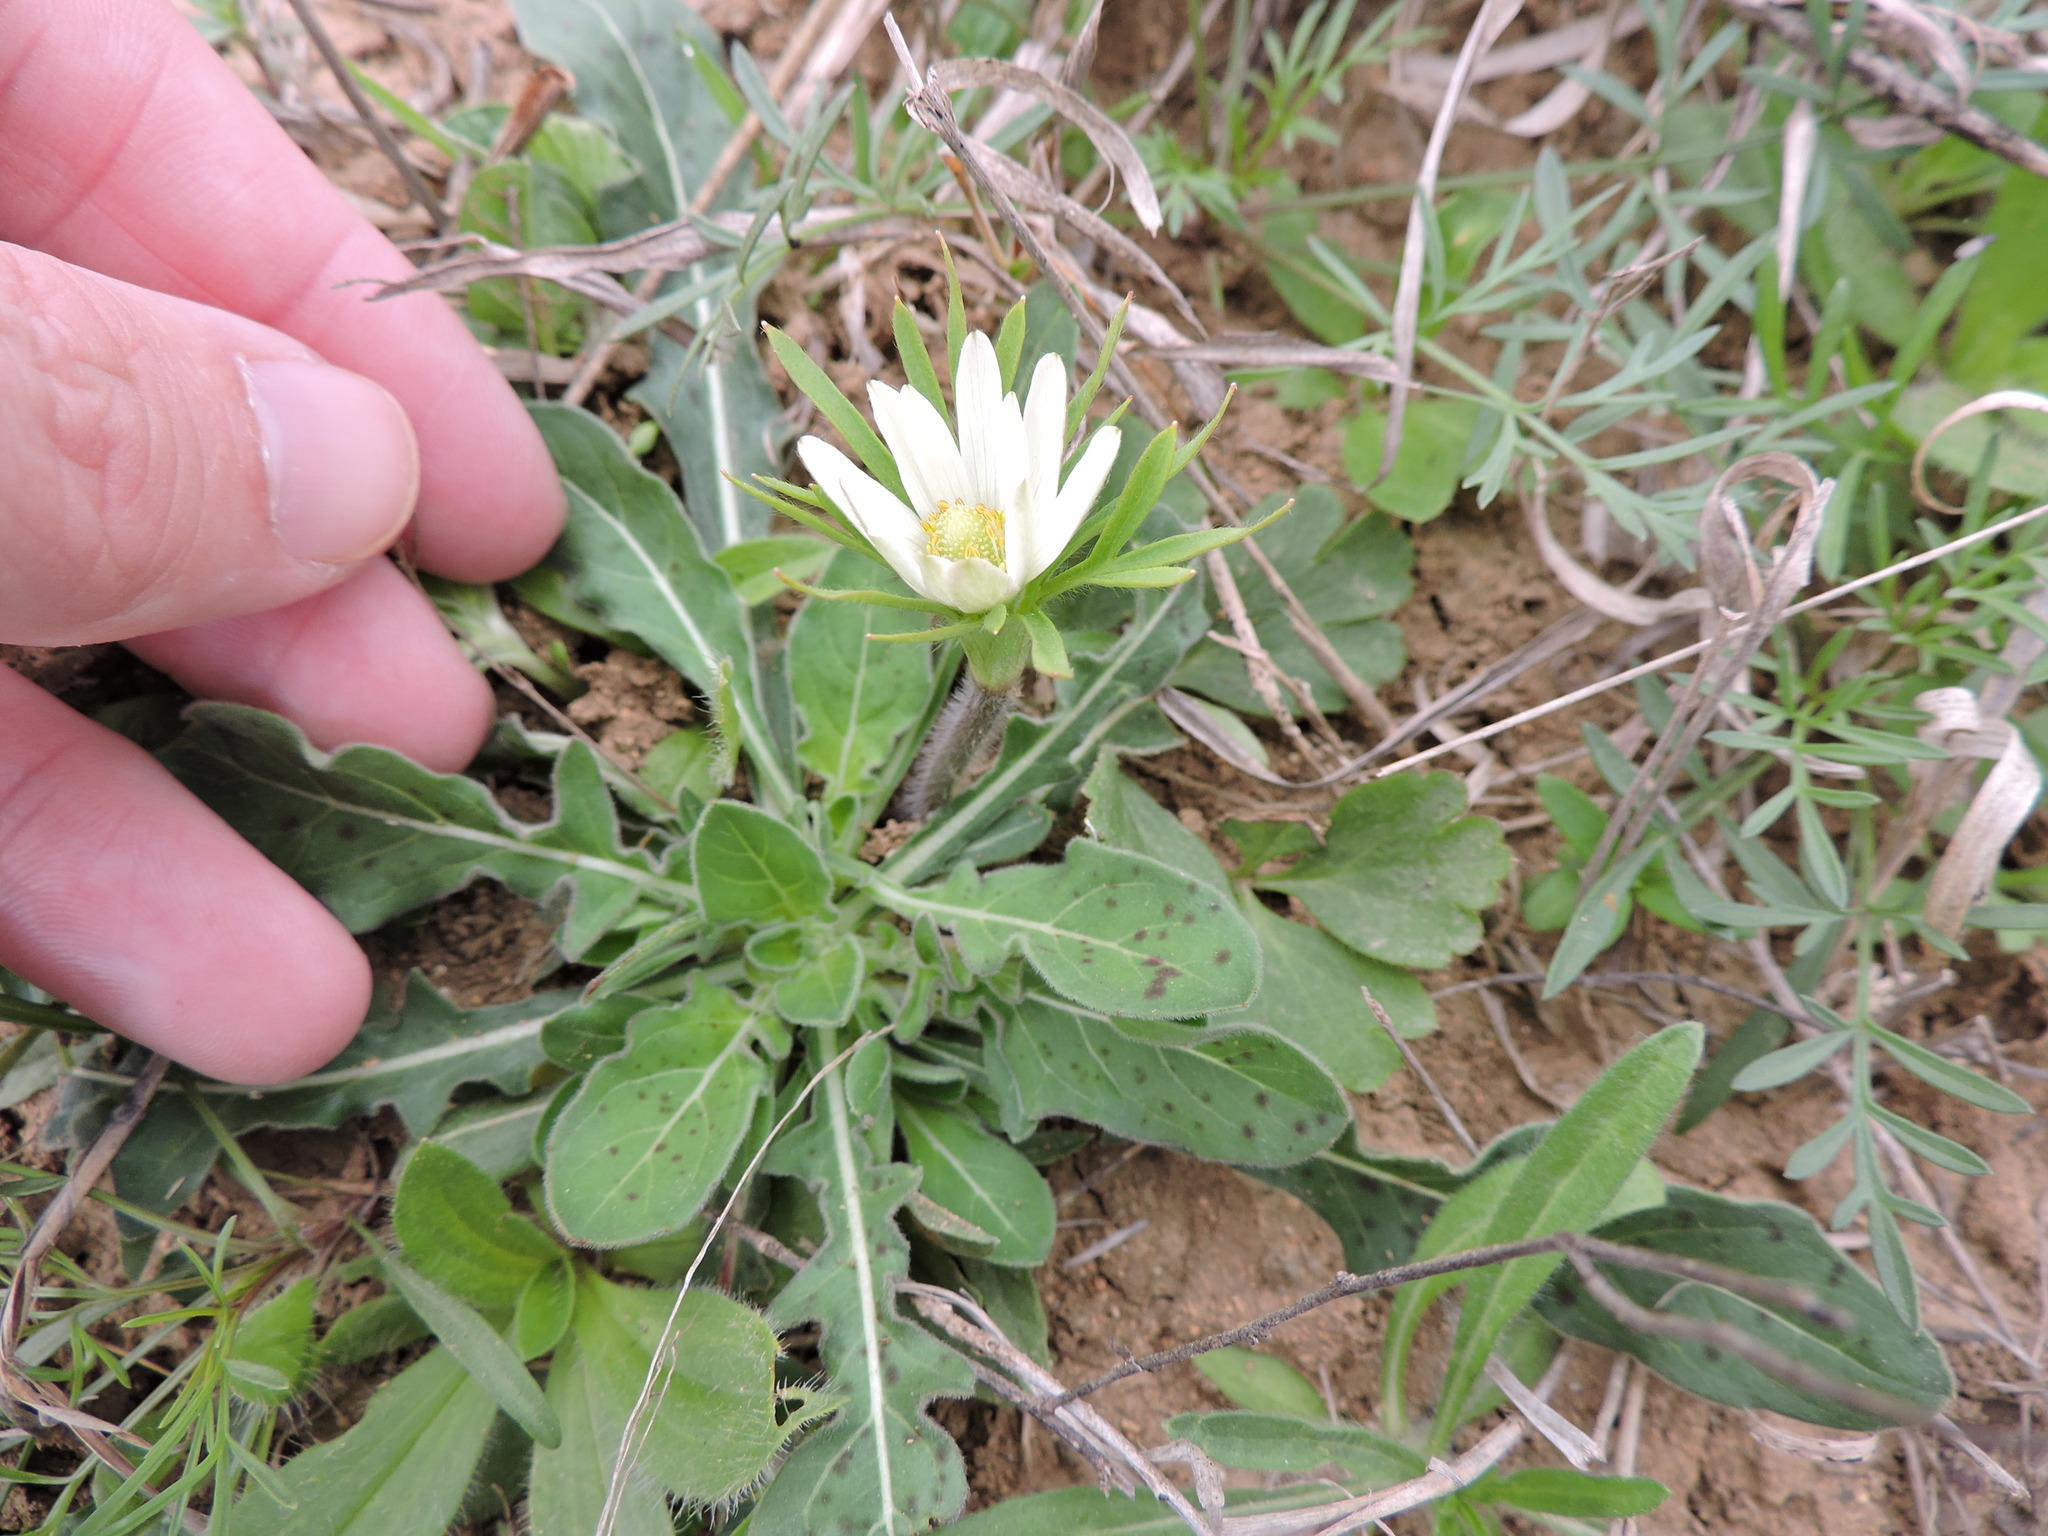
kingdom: Plantae
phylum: Tracheophyta
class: Magnoliopsida
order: Ranunculales
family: Ranunculaceae
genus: Anemone
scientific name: Anemone berlandieri
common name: Ten-petal anemone
